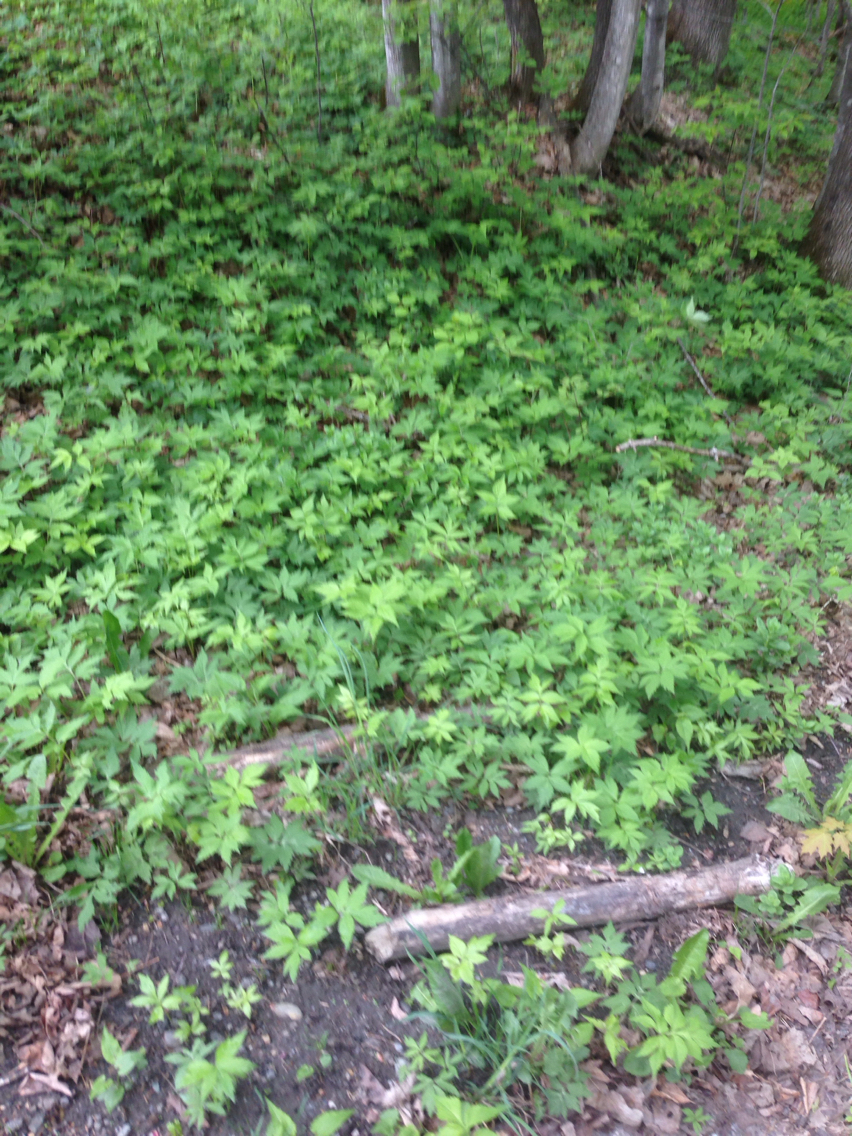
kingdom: Plantae
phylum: Tracheophyta
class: Magnoliopsida
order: Apiales
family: Apiaceae
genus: Aegopodium
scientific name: Aegopodium podagraria
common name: Ground-elder
